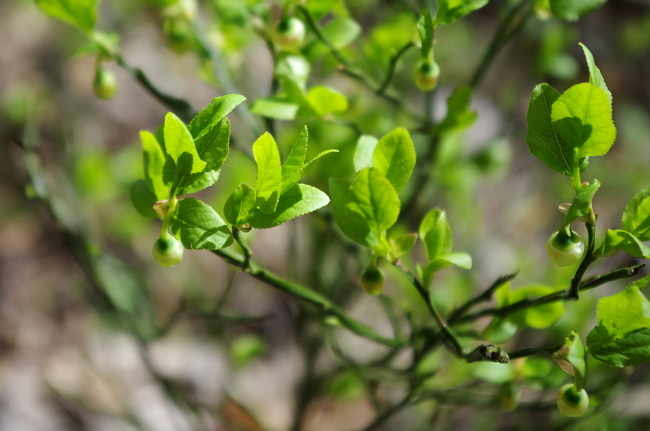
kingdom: Plantae
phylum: Tracheophyta
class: Magnoliopsida
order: Ericales
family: Ericaceae
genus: Vaccinium
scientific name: Vaccinium myrtillus
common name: Bilberry
